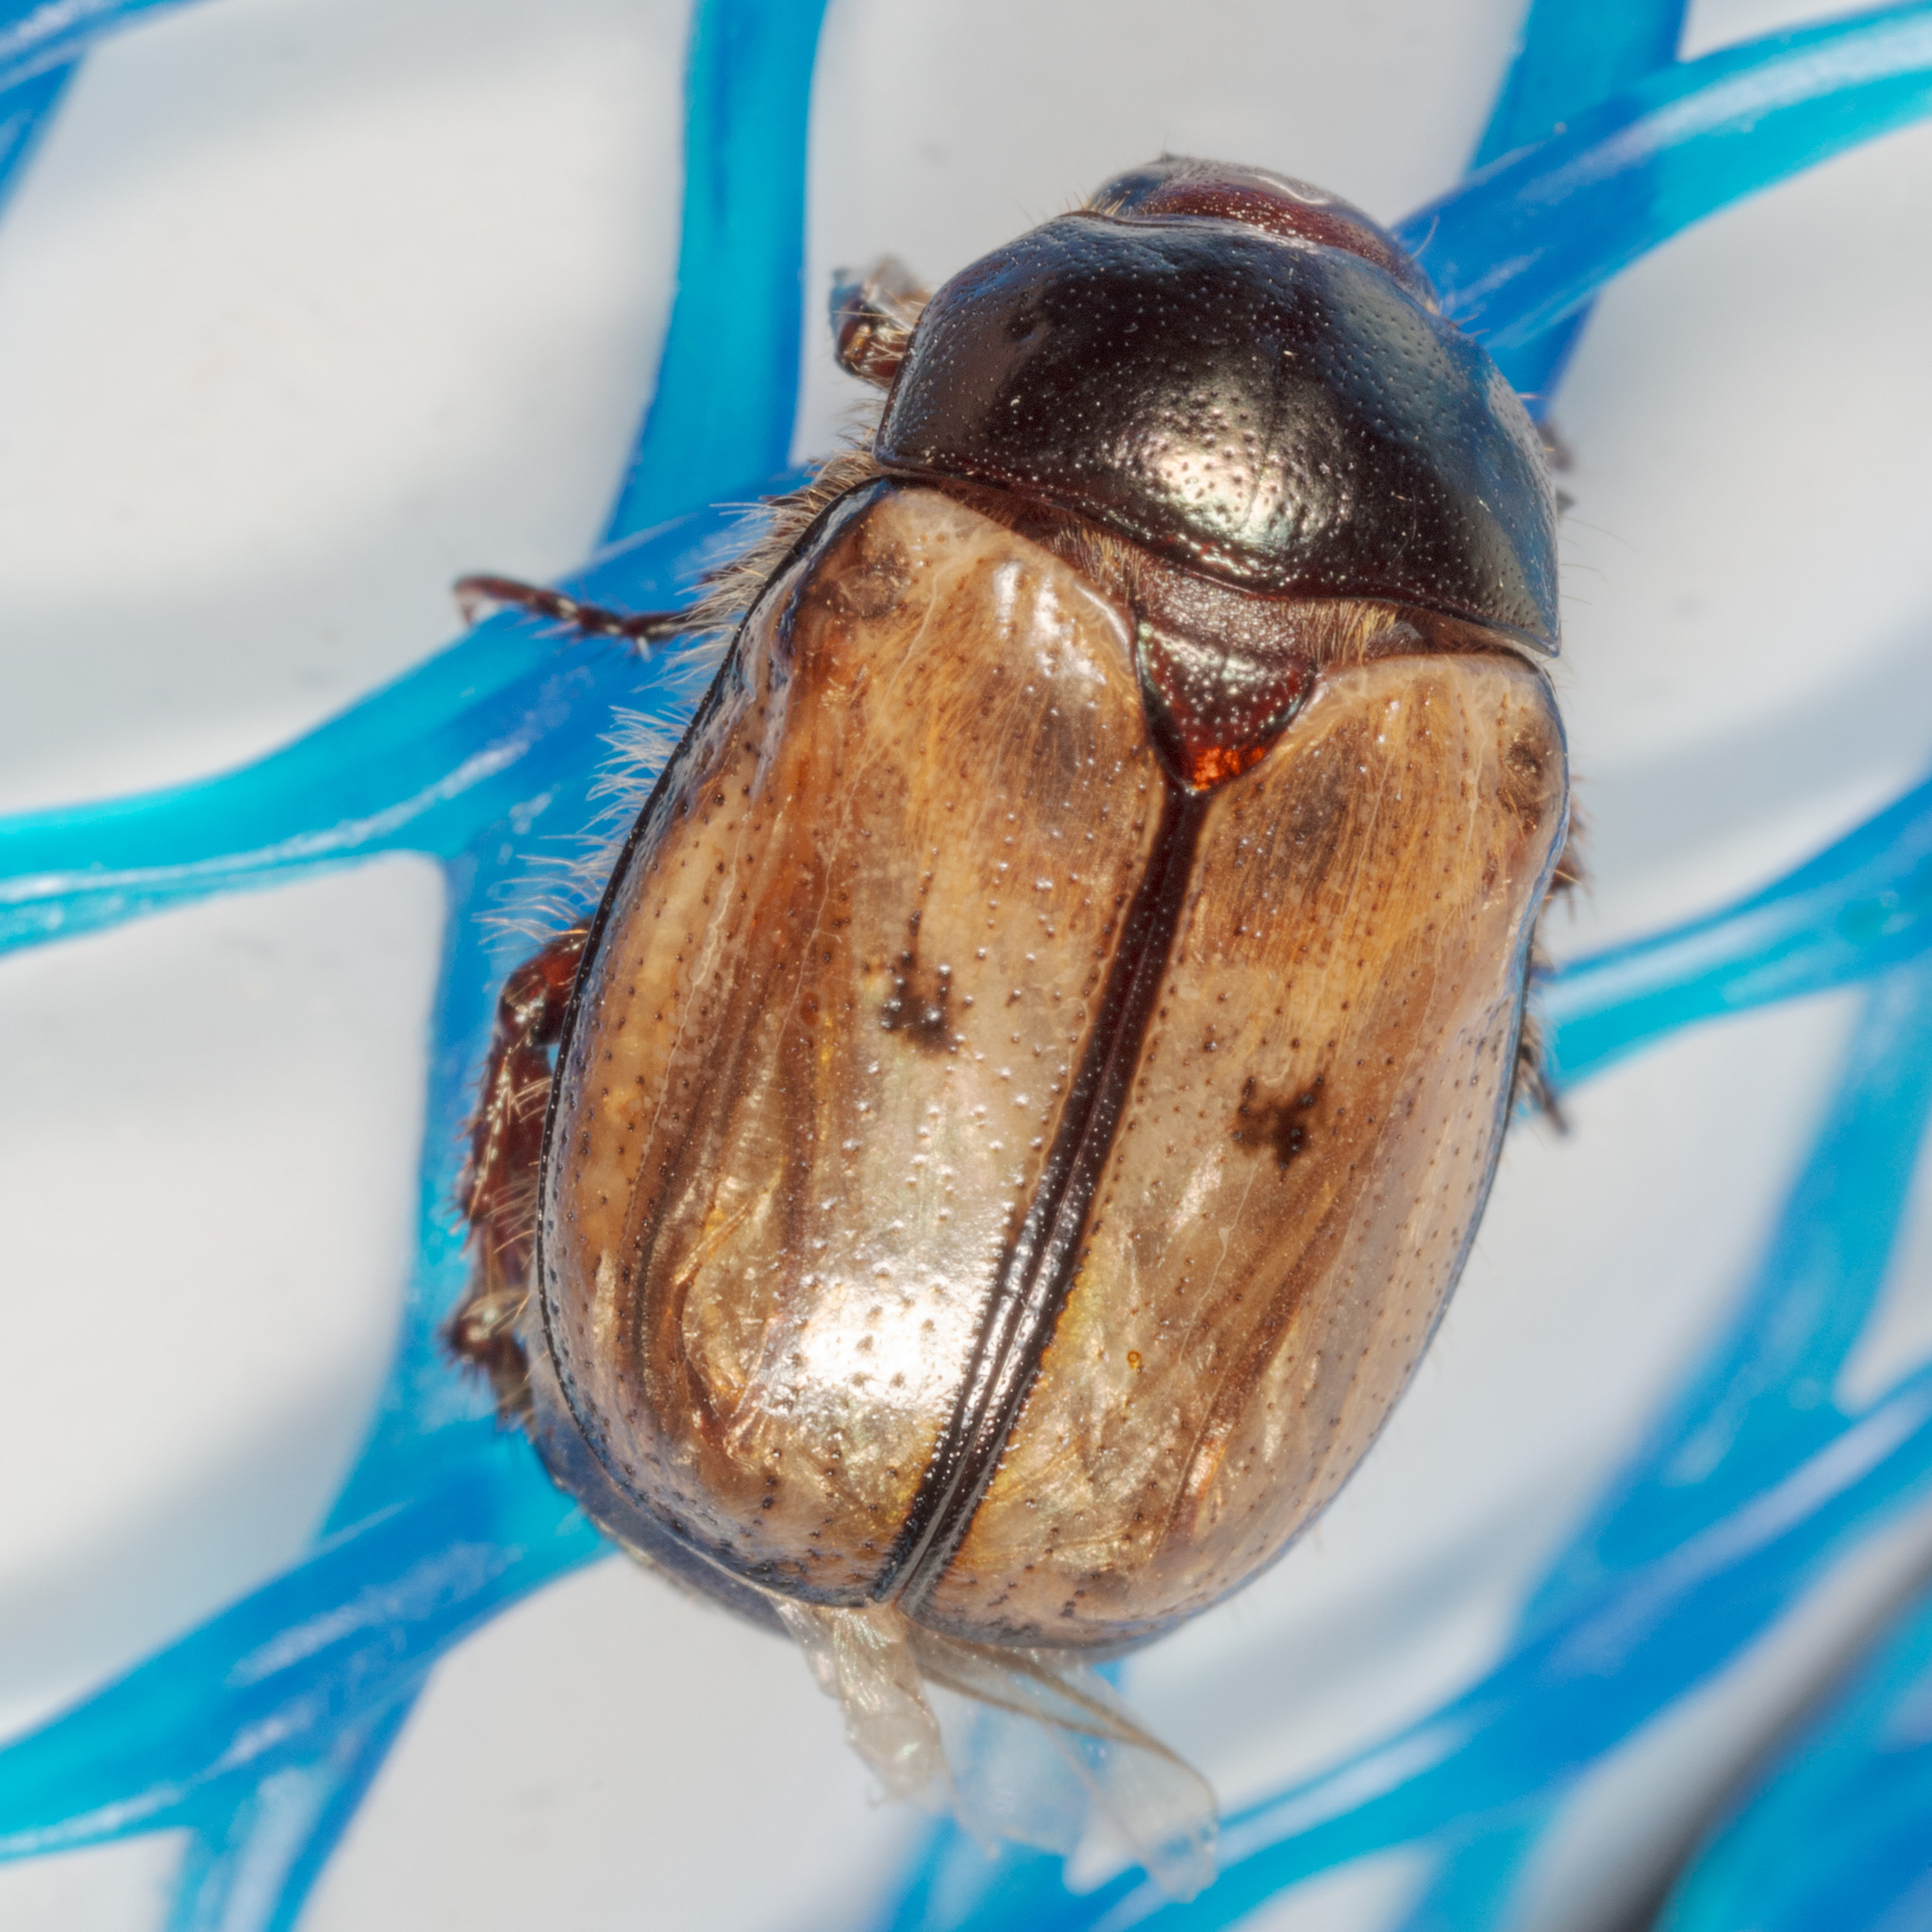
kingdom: Animalia
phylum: Arthropoda
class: Insecta
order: Coleoptera
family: Scarabaeidae
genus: Paranomala
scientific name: Paranomala binotata
